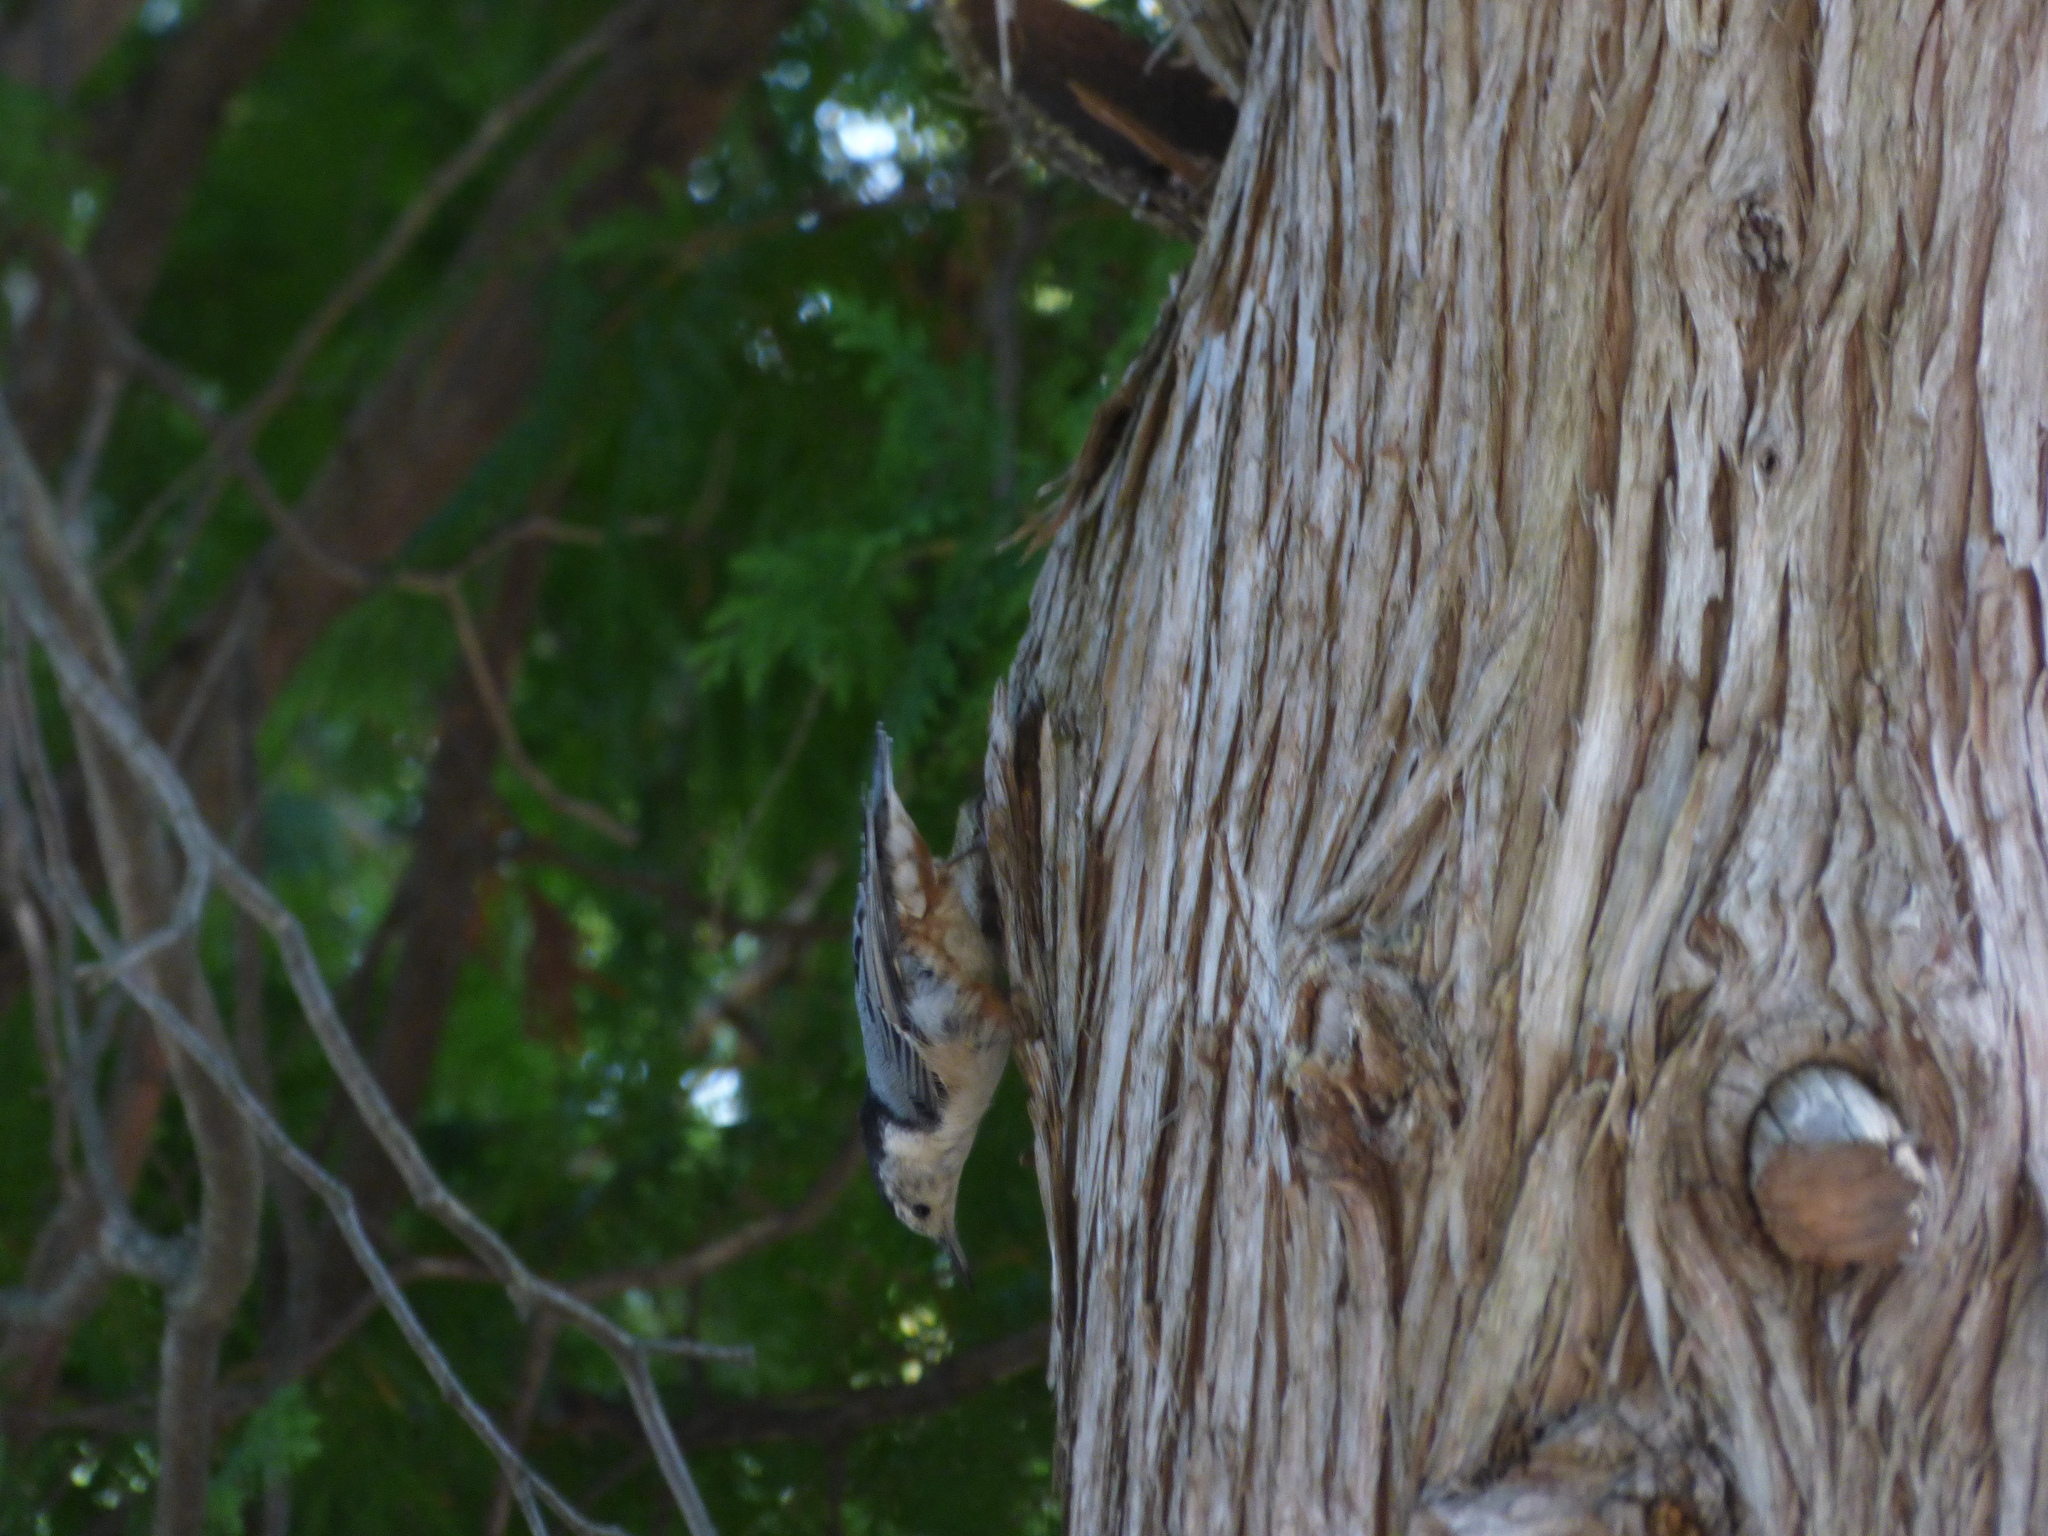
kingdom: Animalia
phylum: Chordata
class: Aves
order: Passeriformes
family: Sittidae
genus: Sitta
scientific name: Sitta carolinensis
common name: White-breasted nuthatch
